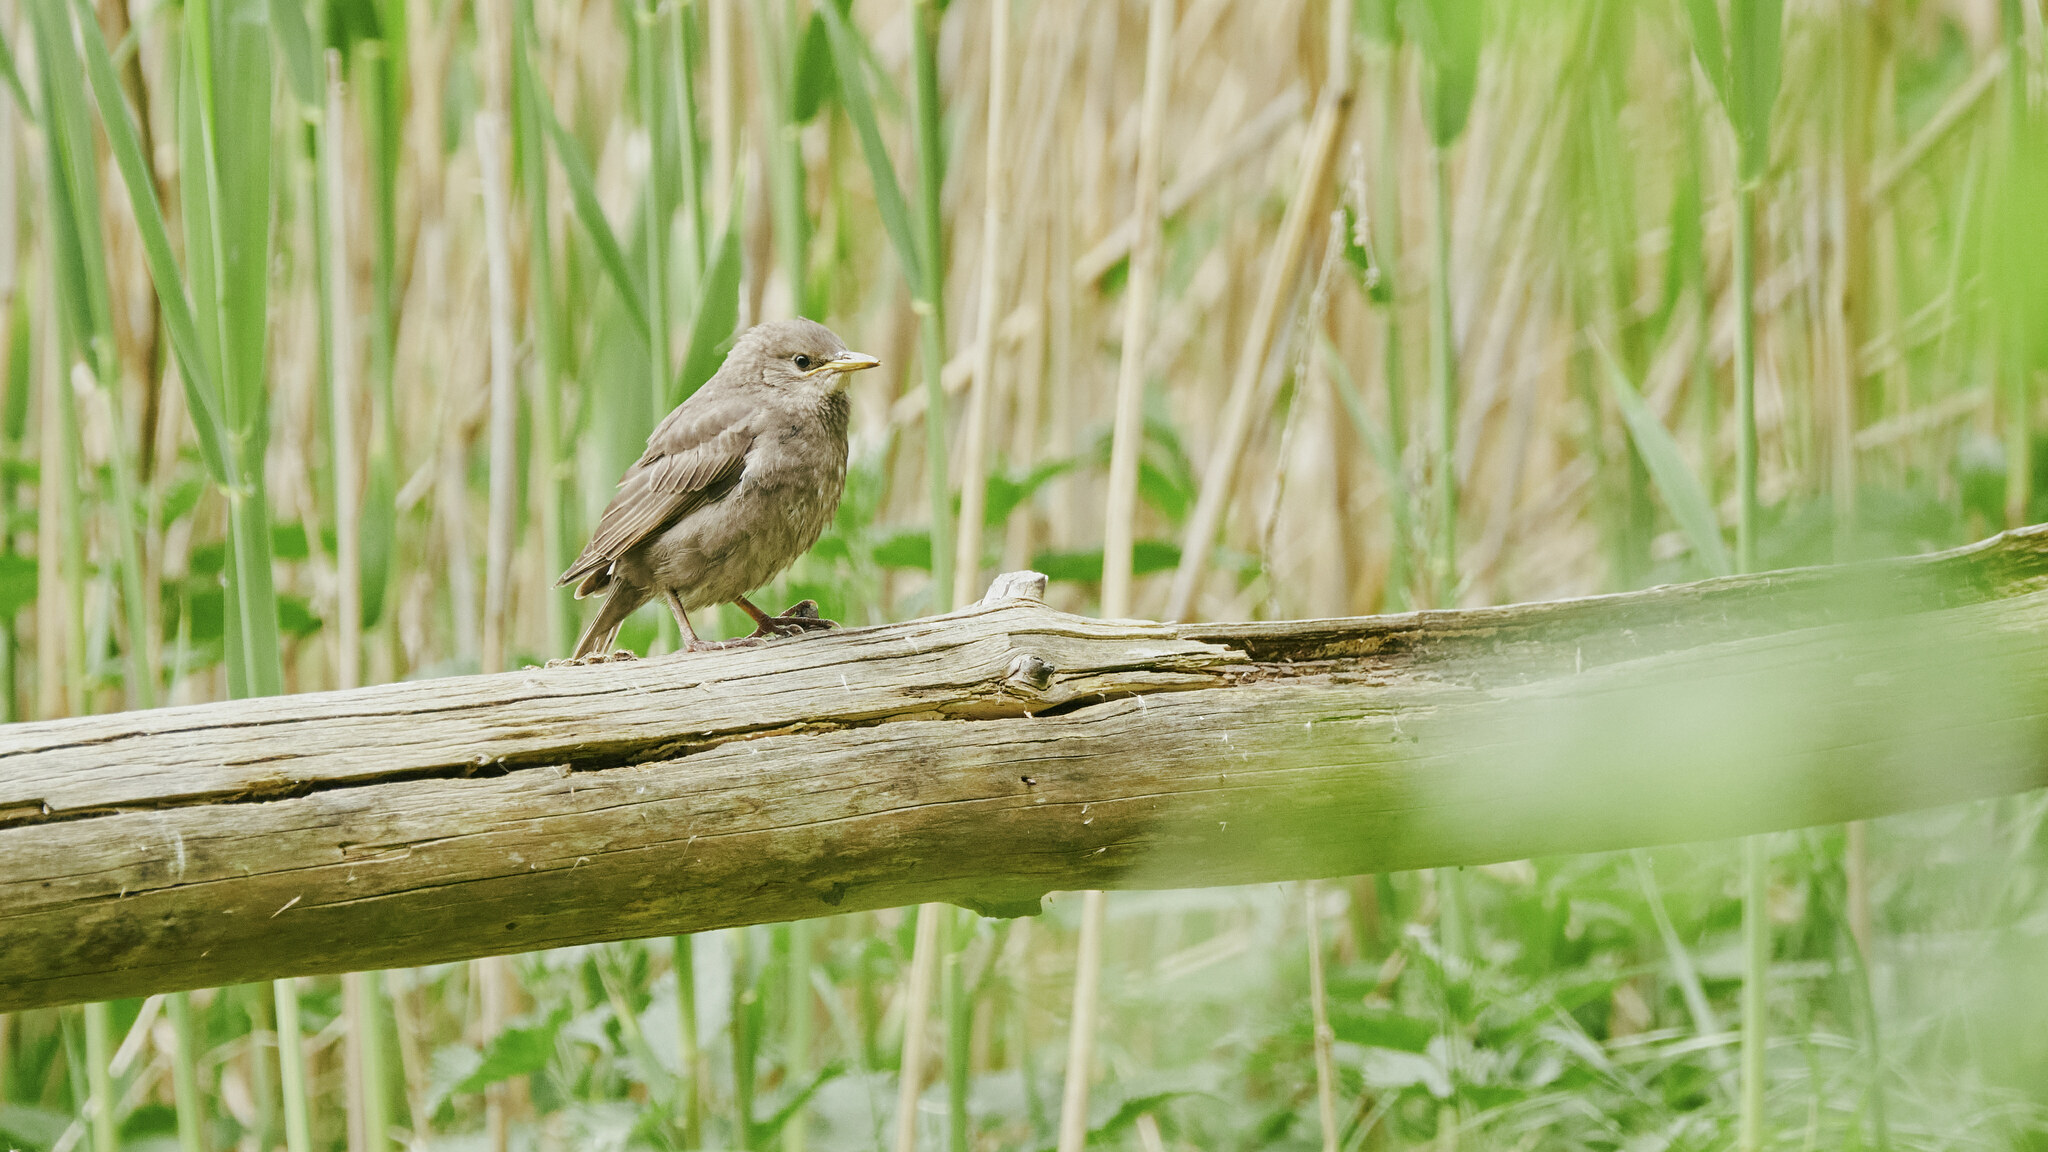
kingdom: Animalia
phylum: Chordata
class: Aves
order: Passeriformes
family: Sturnidae
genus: Sturnus
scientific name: Sturnus vulgaris
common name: Common starling
